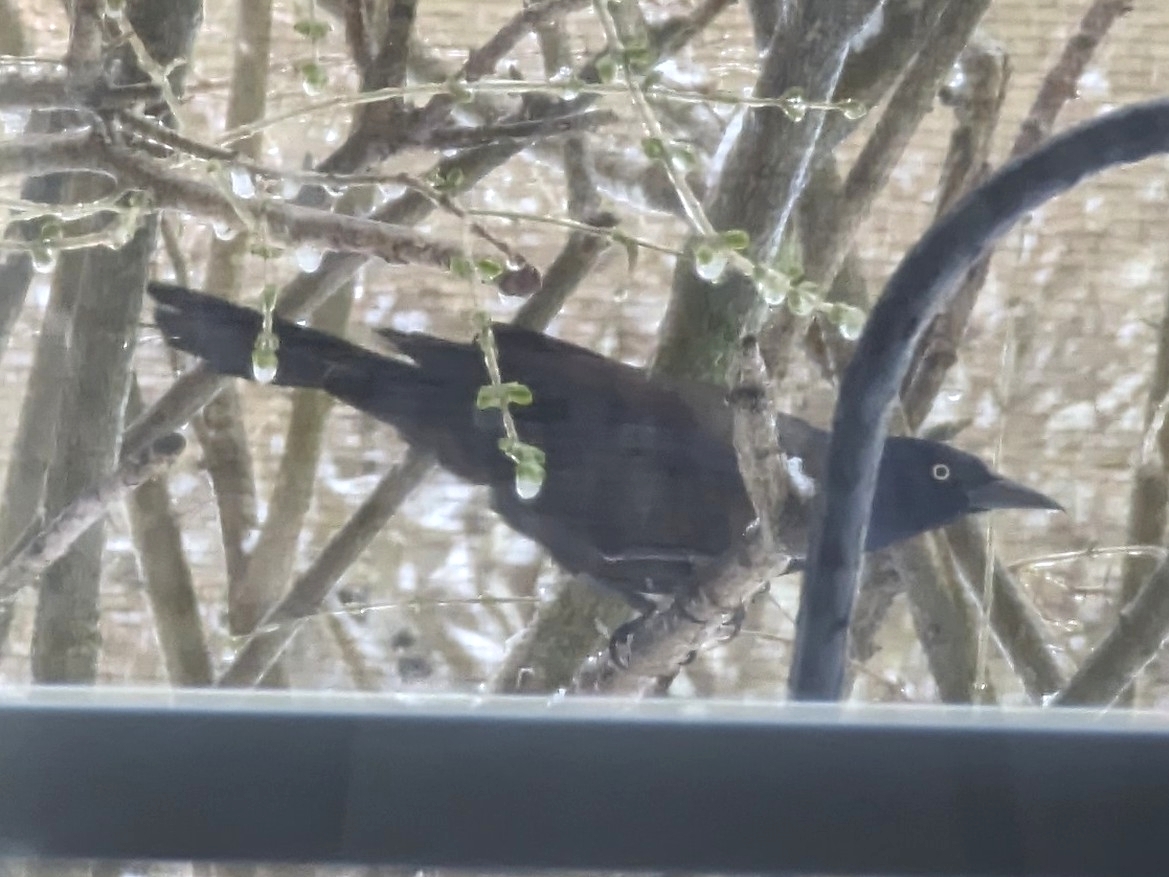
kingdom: Animalia
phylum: Chordata
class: Aves
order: Passeriformes
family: Icteridae
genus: Quiscalus
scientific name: Quiscalus quiscula
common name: Common grackle
